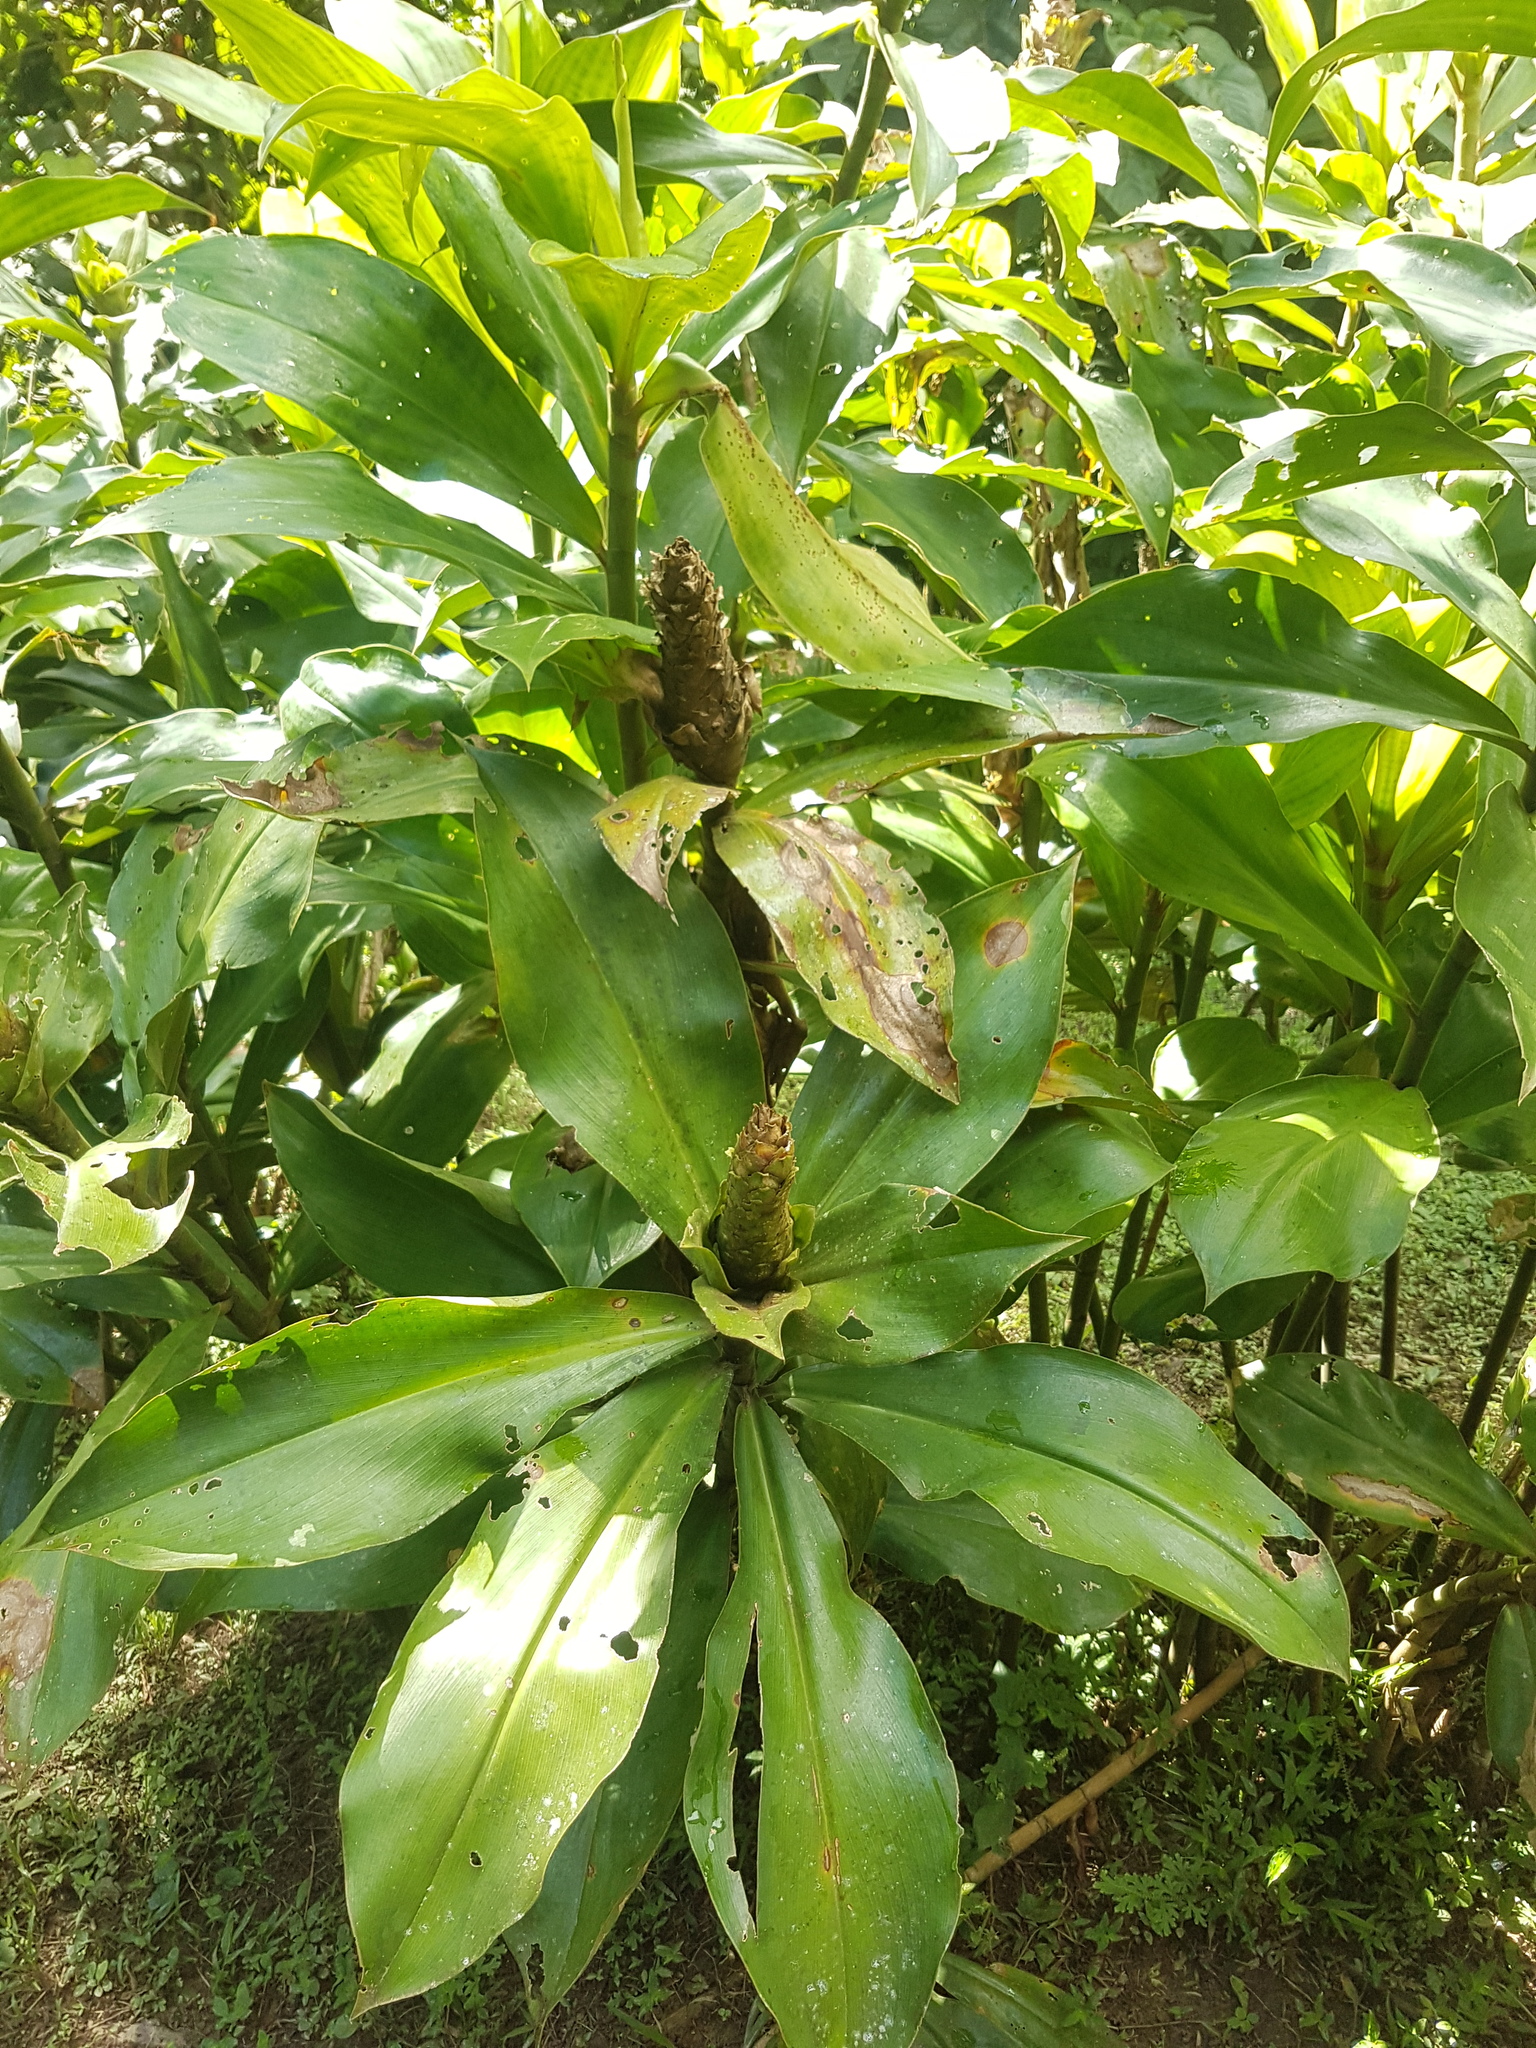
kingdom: Plantae
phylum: Tracheophyta
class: Liliopsida
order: Zingiberales
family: Costaceae
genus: Costus
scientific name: Costus guanaiensis
